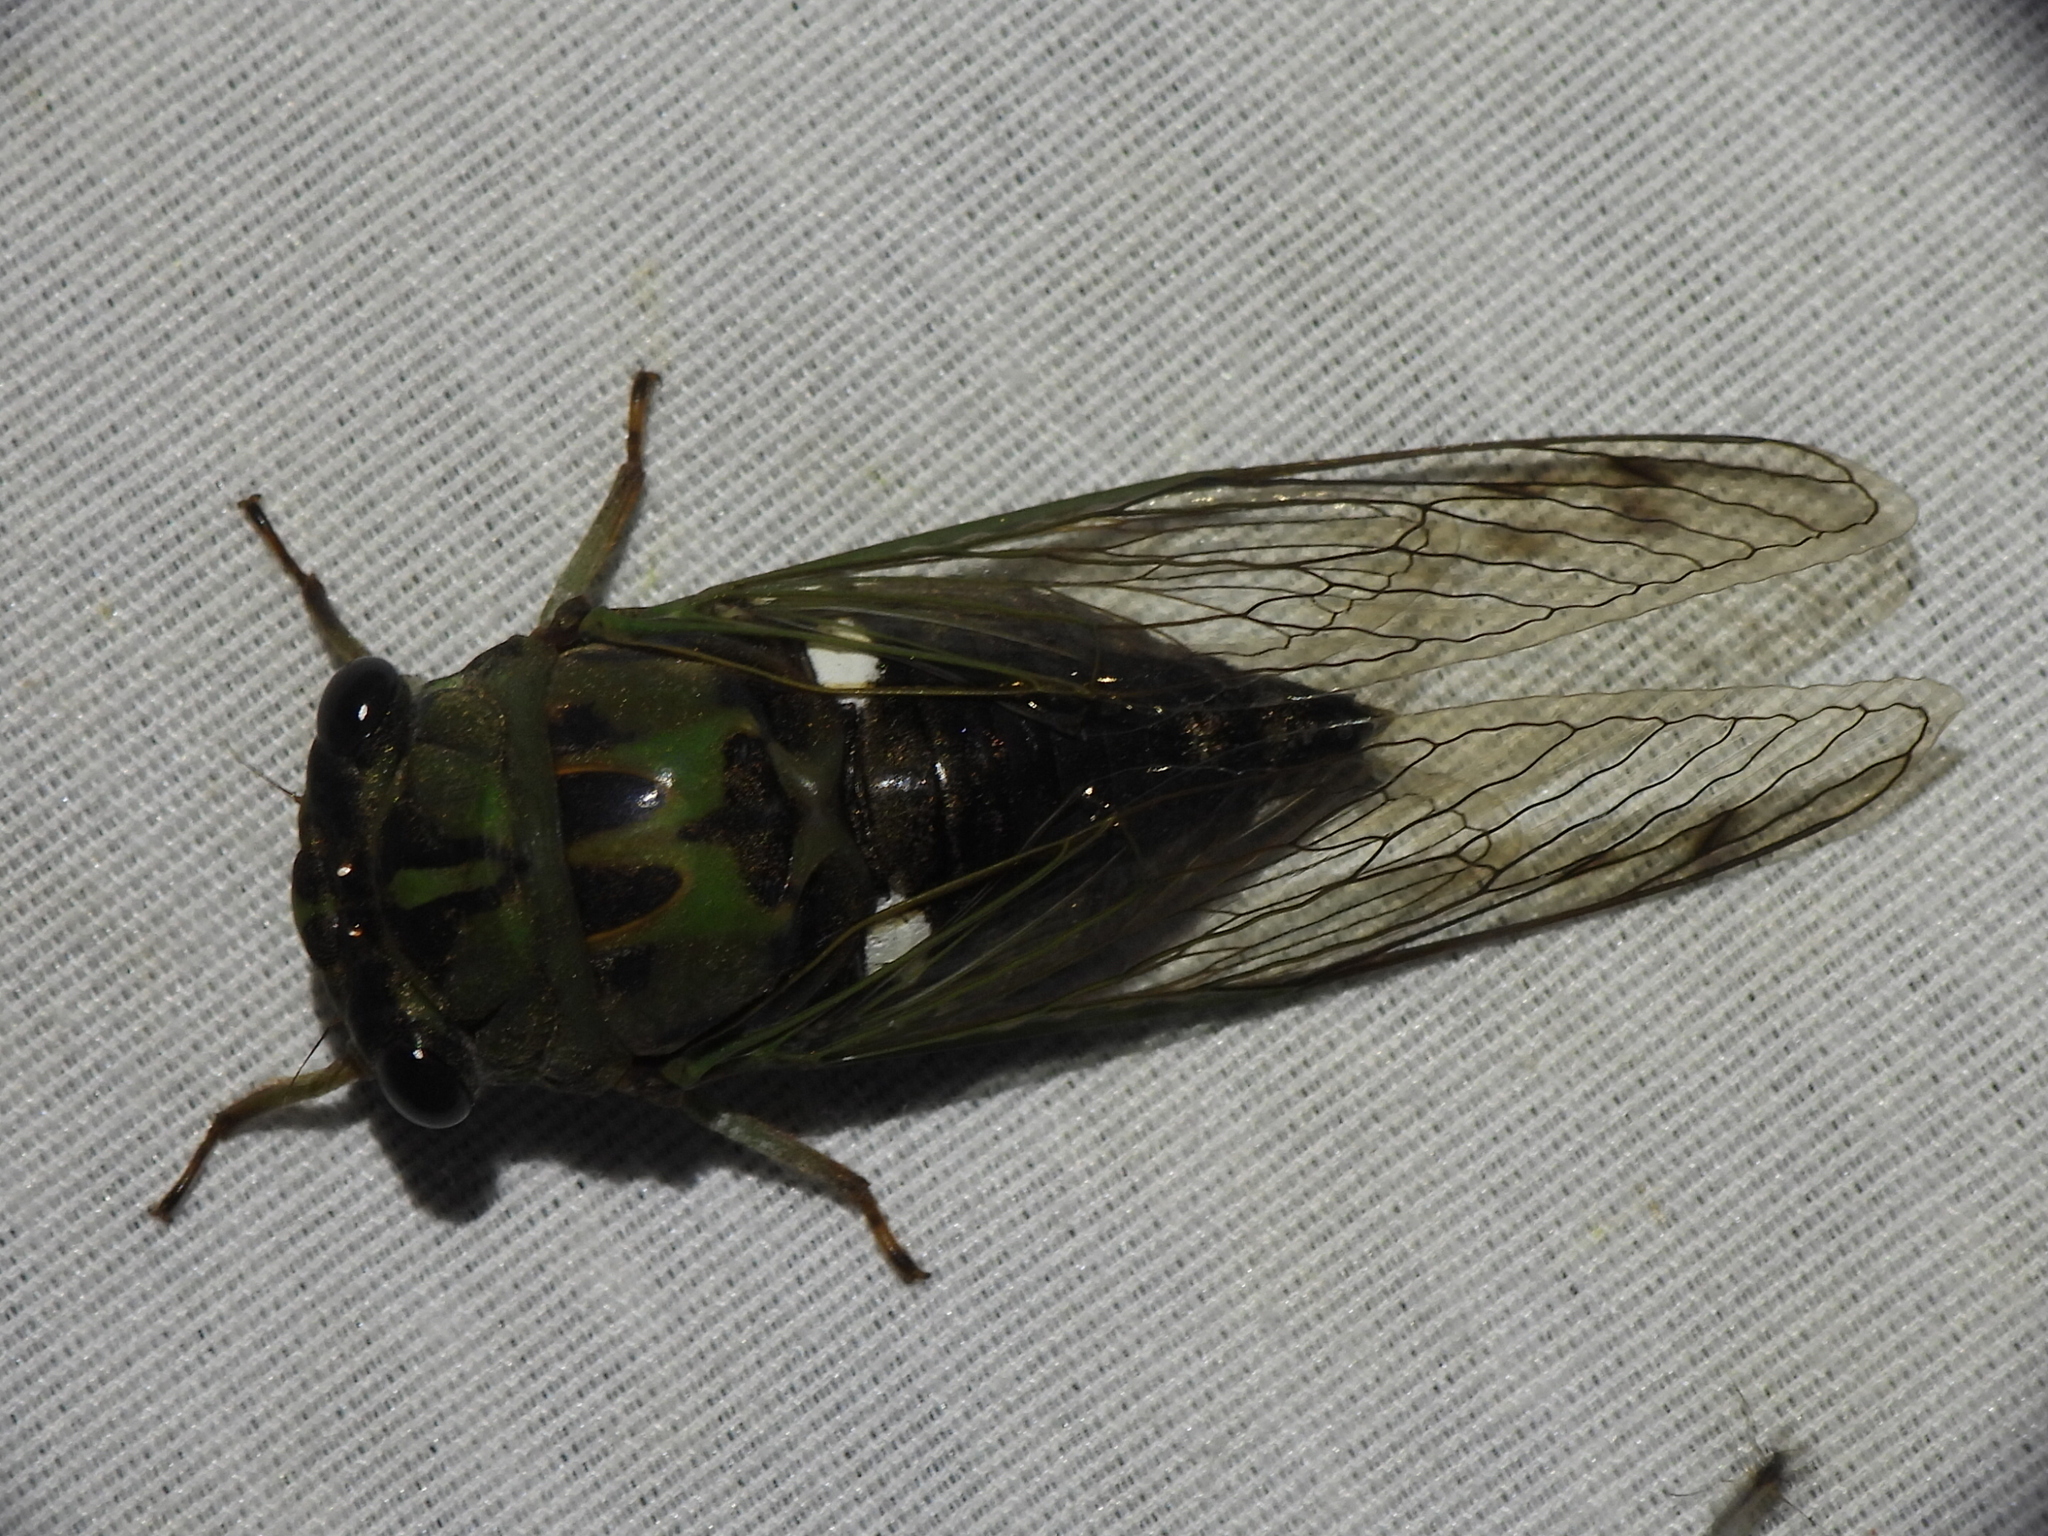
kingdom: Animalia
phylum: Arthropoda
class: Insecta
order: Hemiptera
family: Cicadidae
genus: Neotibicen
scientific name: Neotibicen pruinosus
